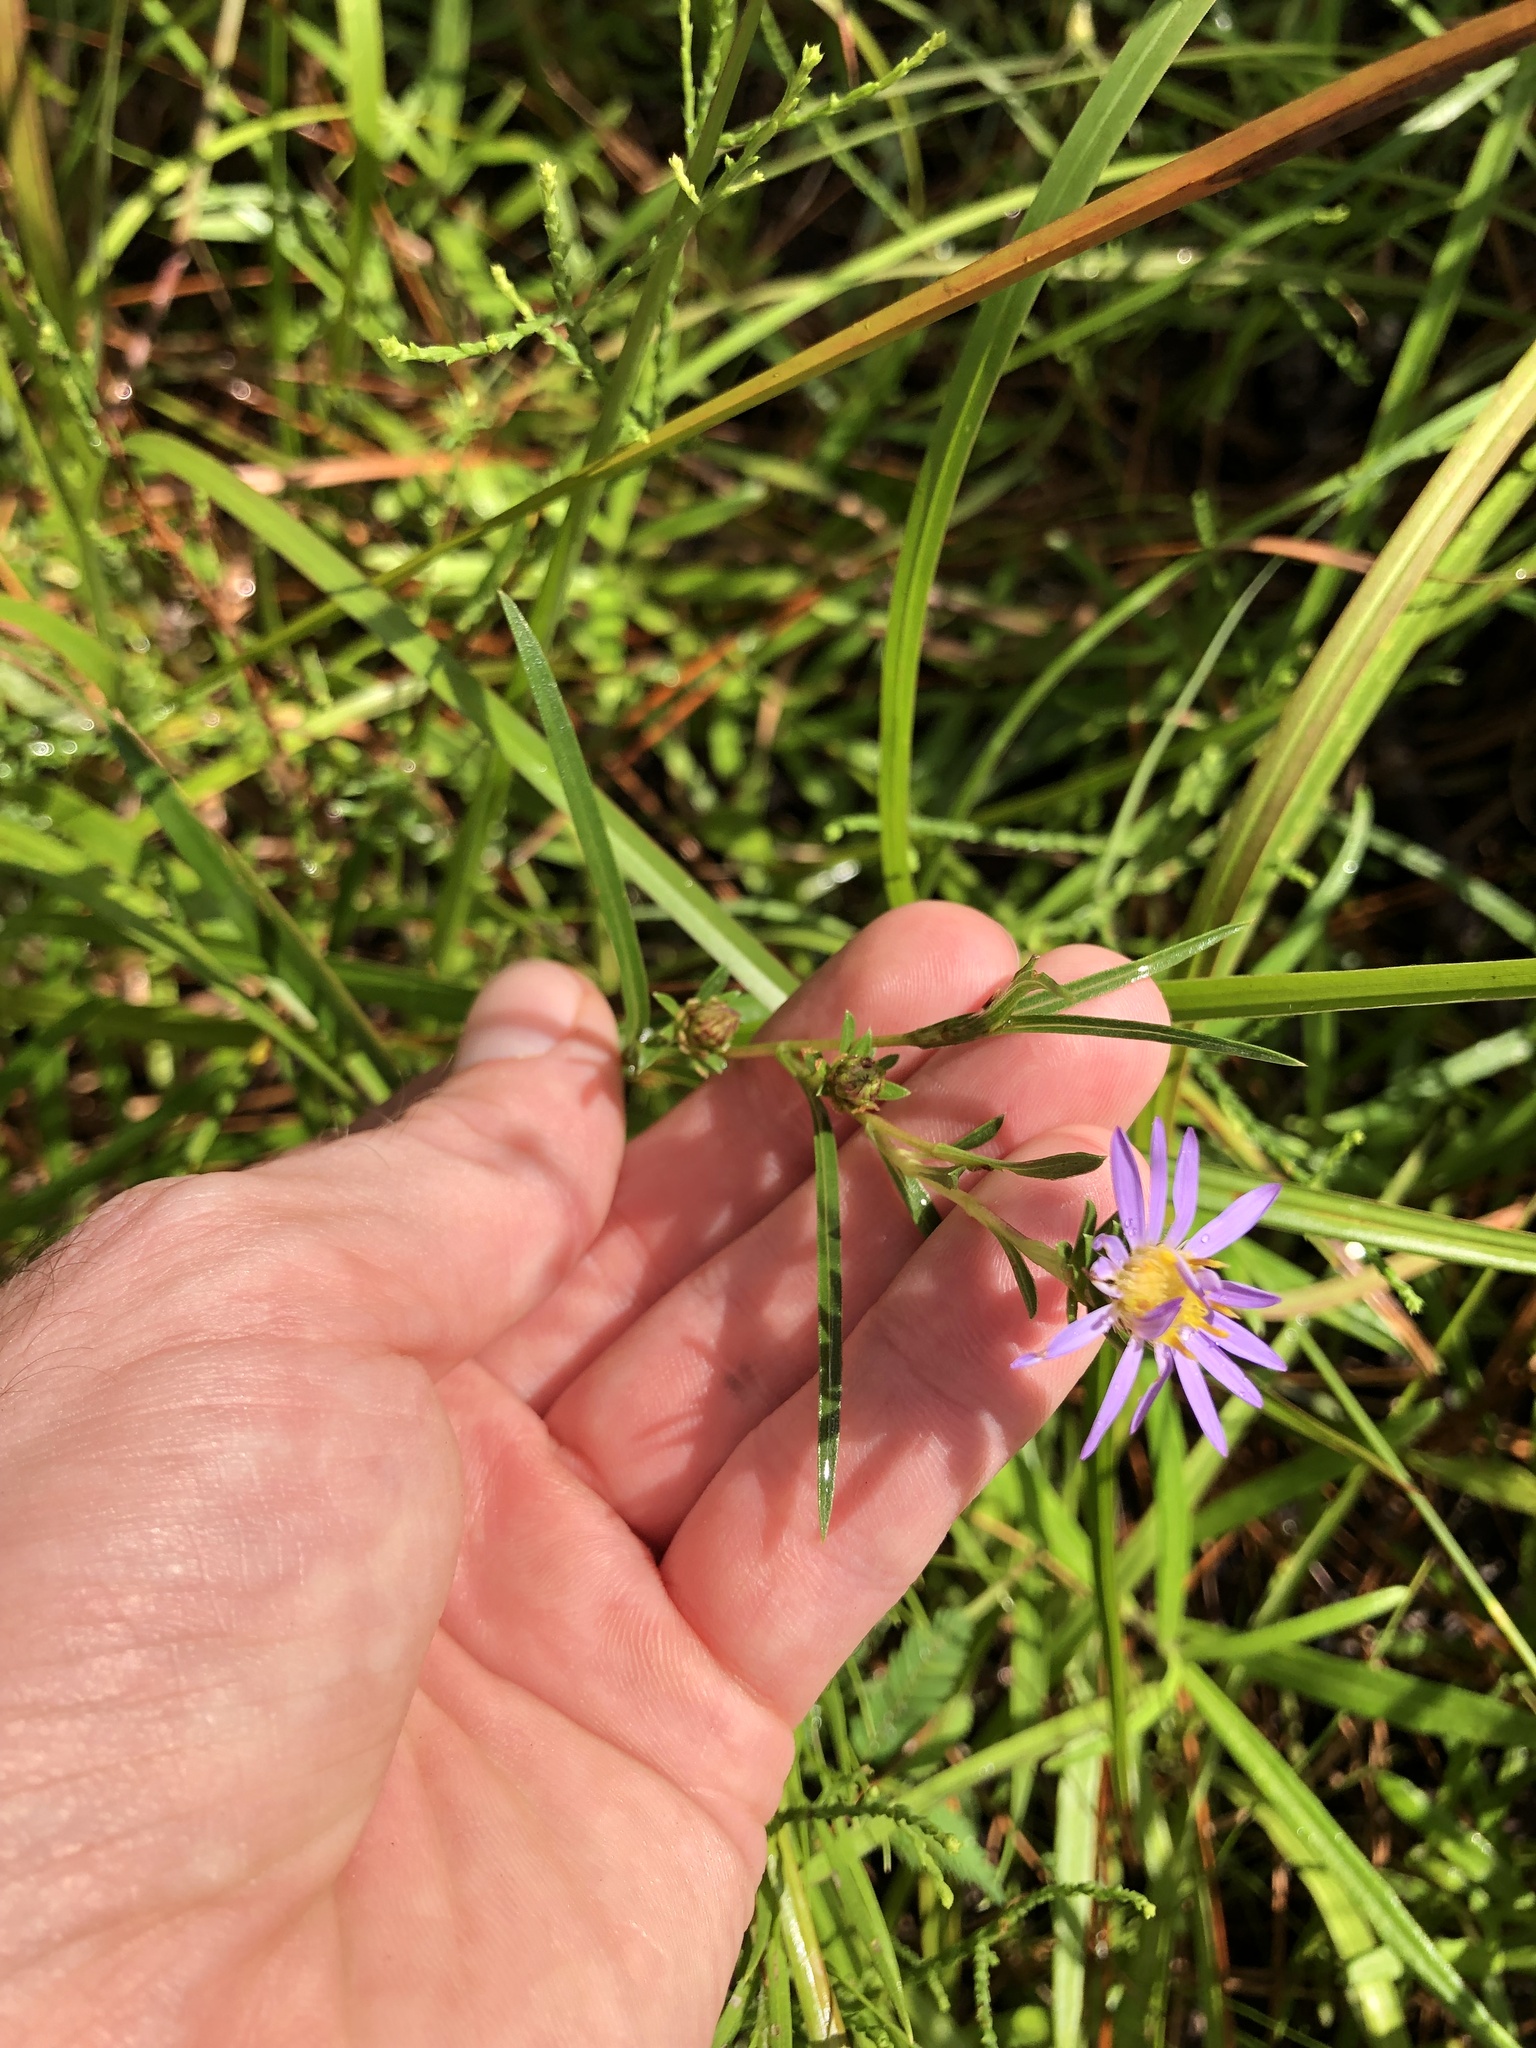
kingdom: Plantae
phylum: Tracheophyta
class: Magnoliopsida
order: Asterales
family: Asteraceae
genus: Eurybia
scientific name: Eurybia hemispherica
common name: Showy aster
